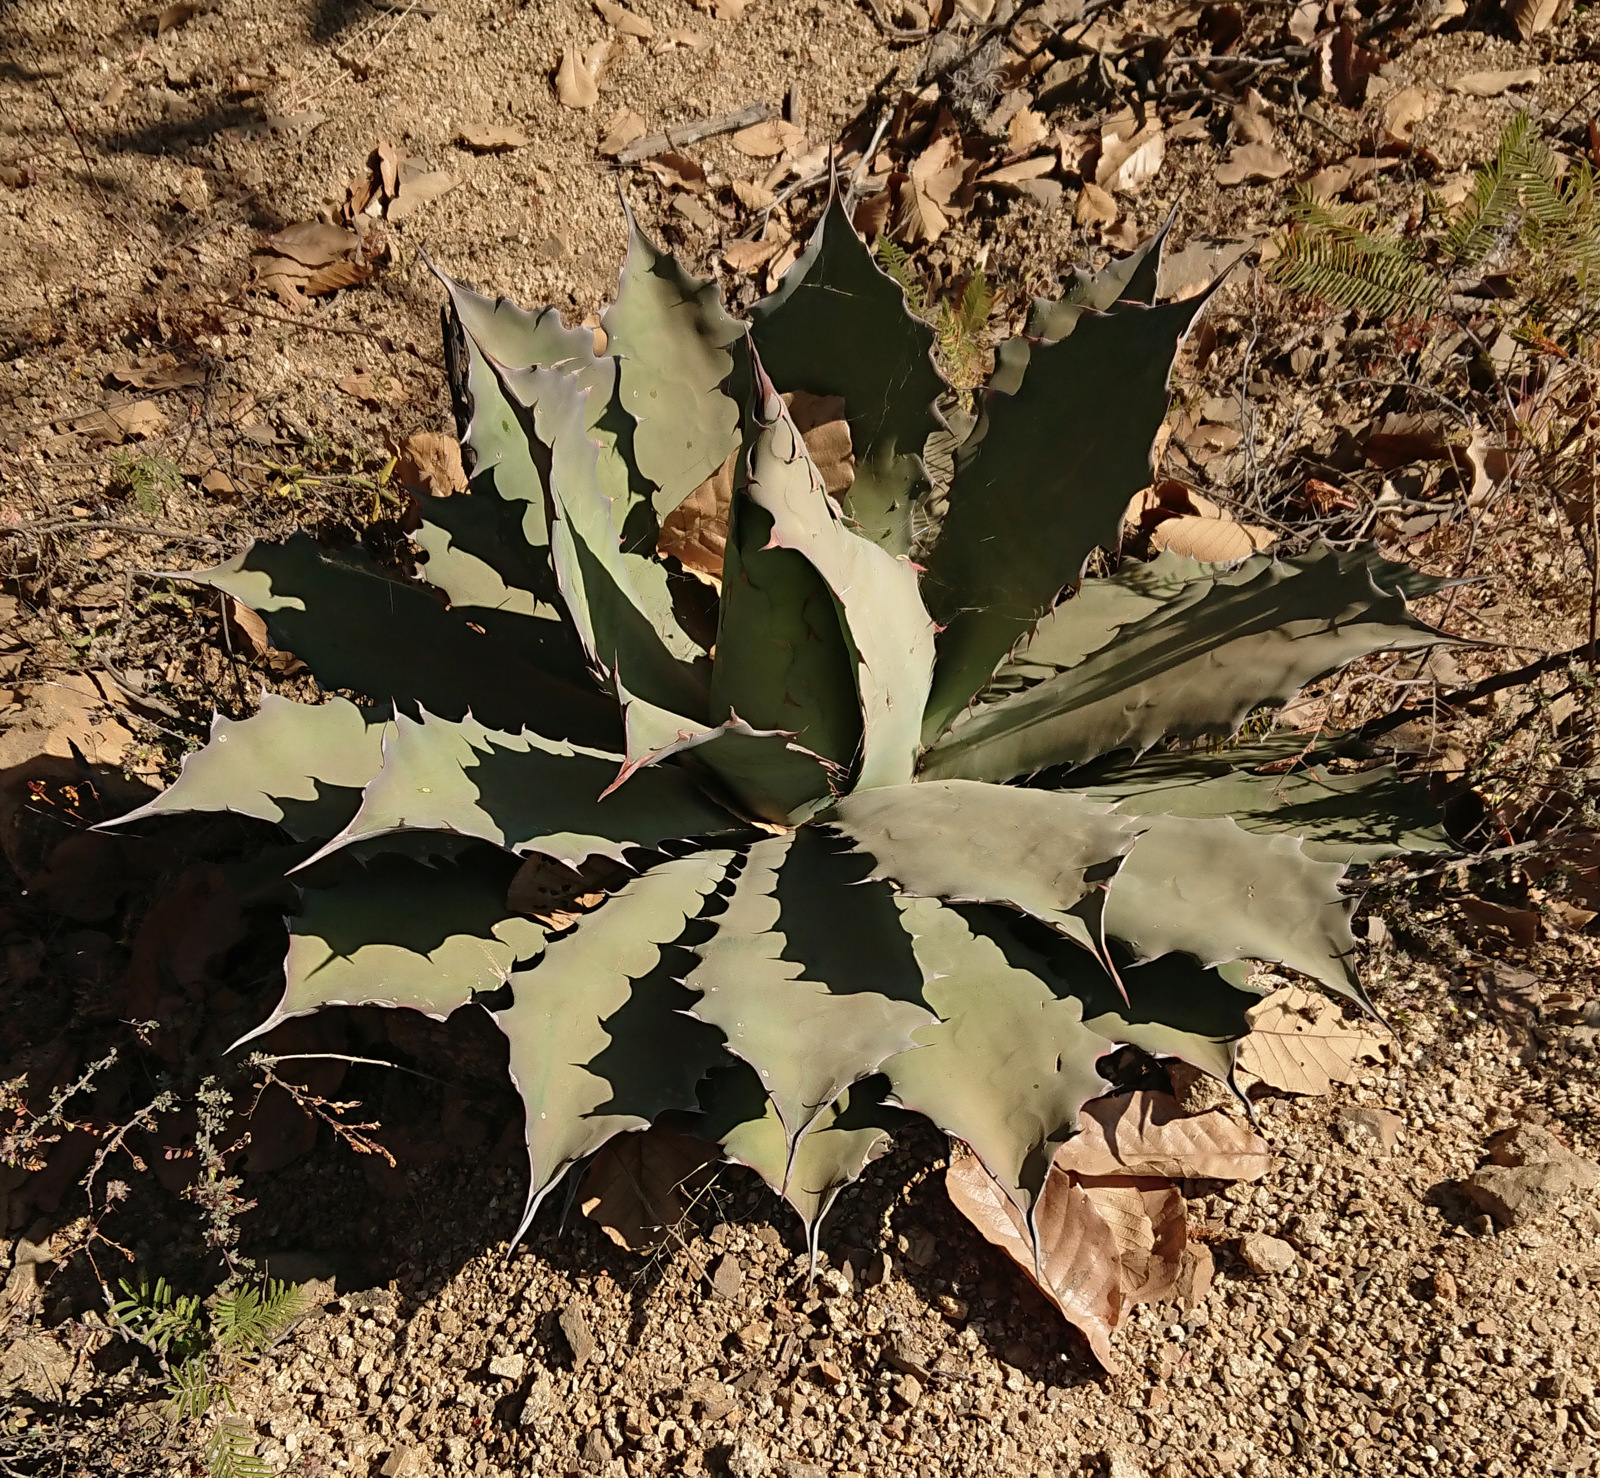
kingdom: Plantae
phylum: Tracheophyta
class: Liliopsida
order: Asparagales
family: Asparagaceae
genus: Agave
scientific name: Agave seemanniana
